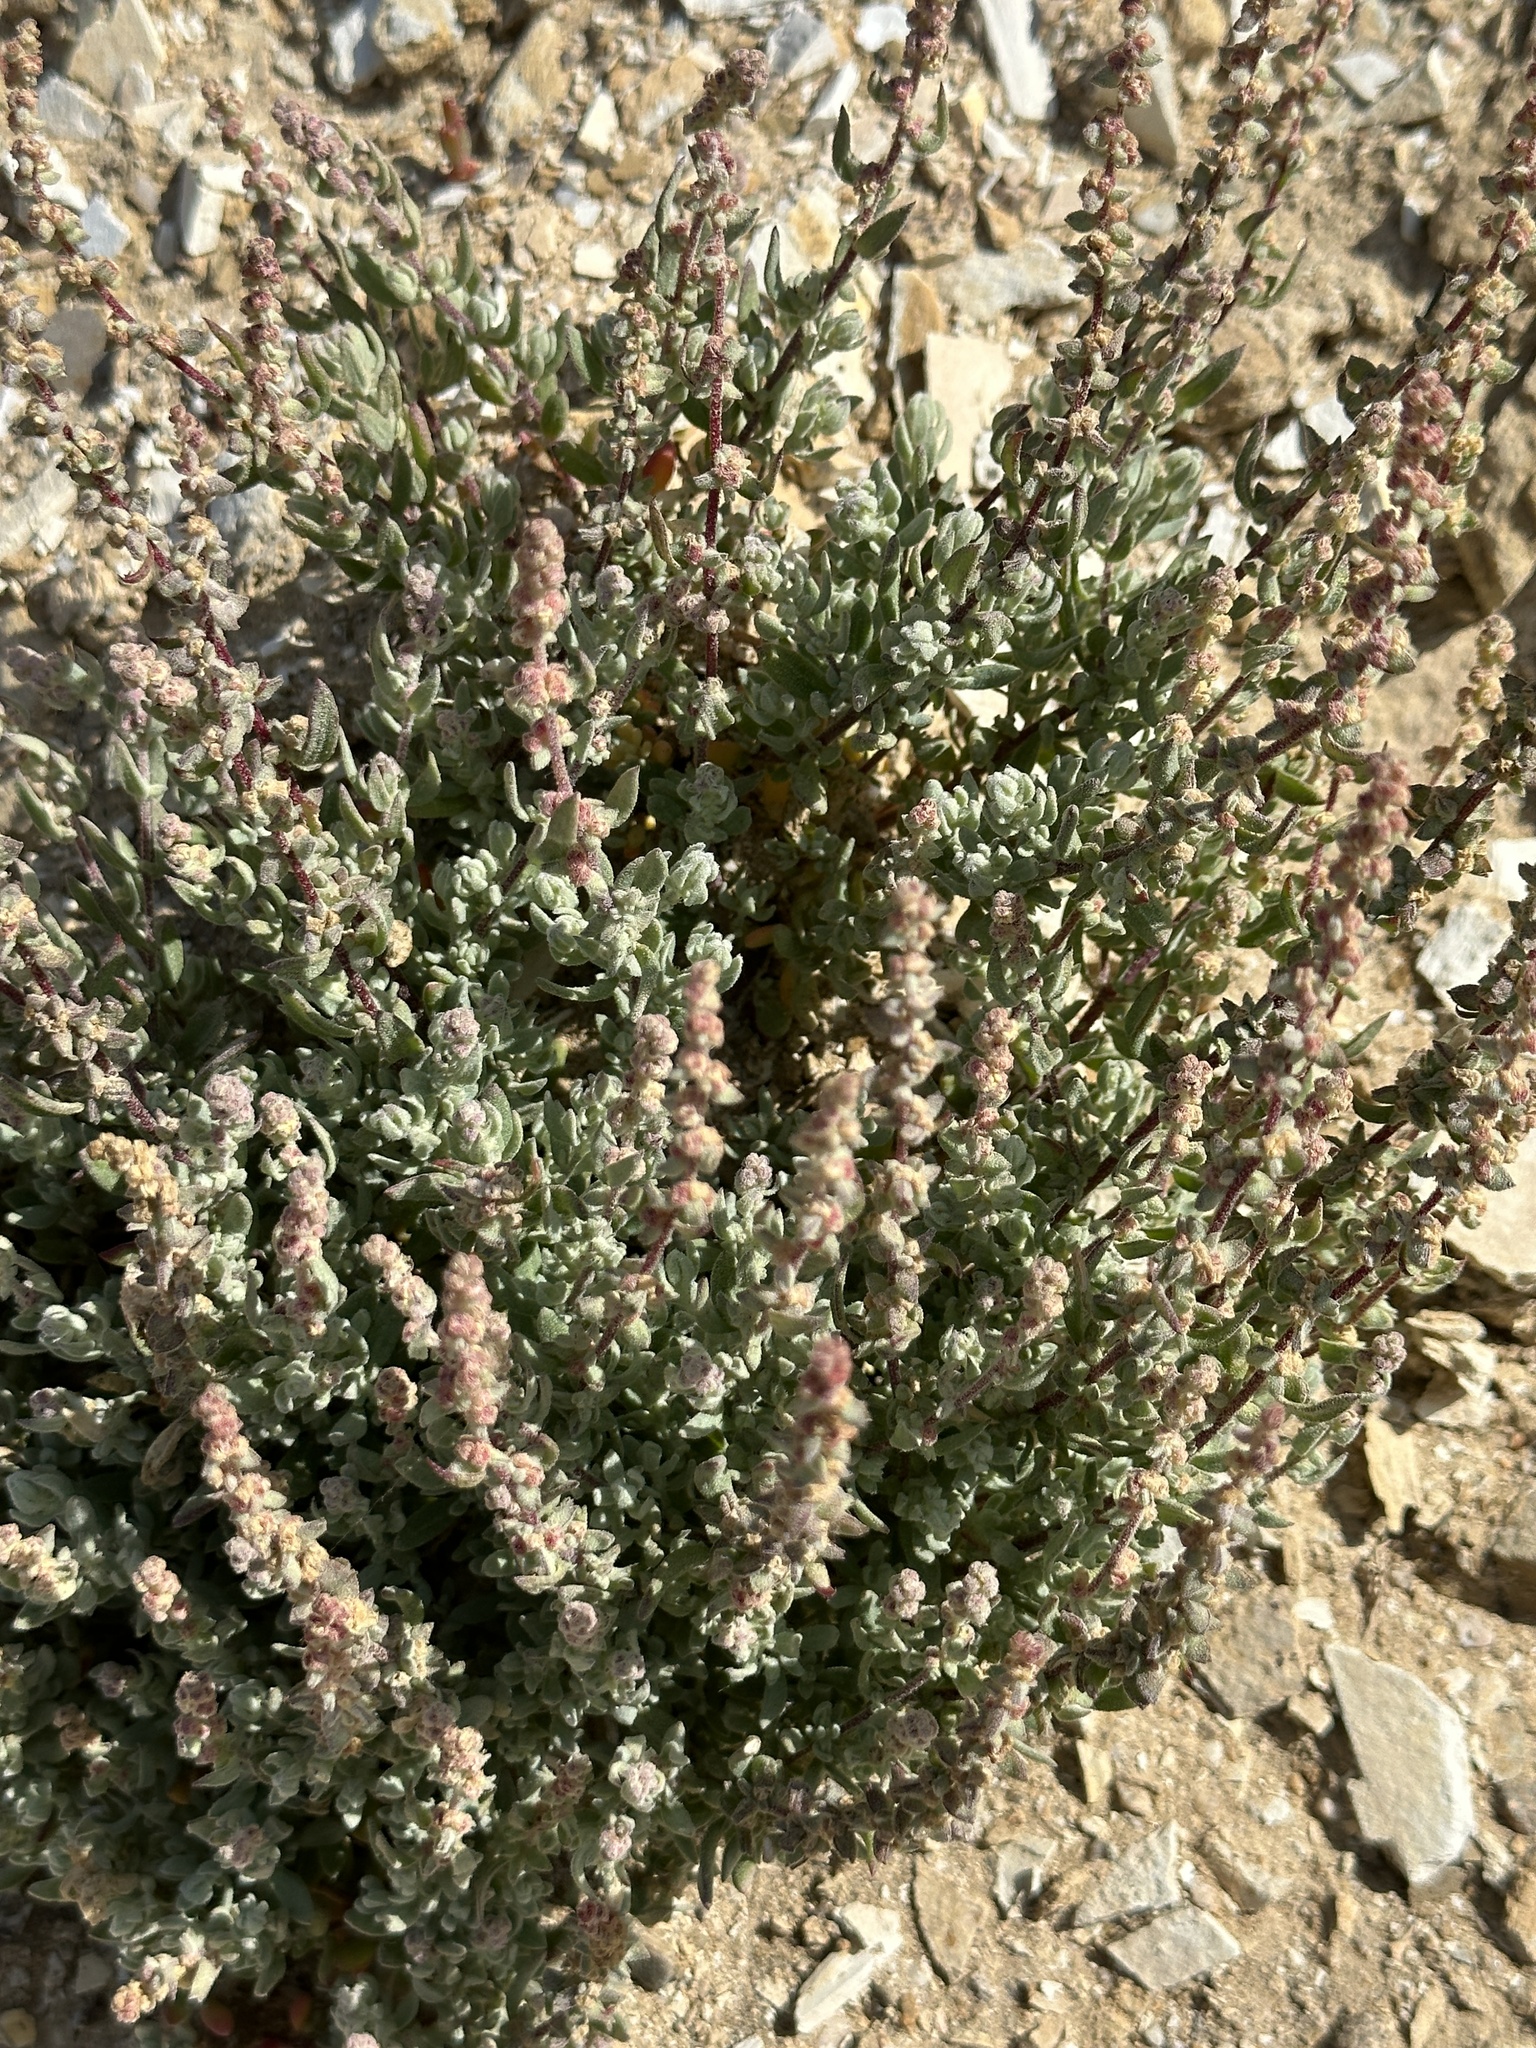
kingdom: Plantae
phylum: Tracheophyta
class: Magnoliopsida
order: Caryophyllales
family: Amaranthaceae
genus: Extriplex
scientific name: Extriplex californica
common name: California saltbush
